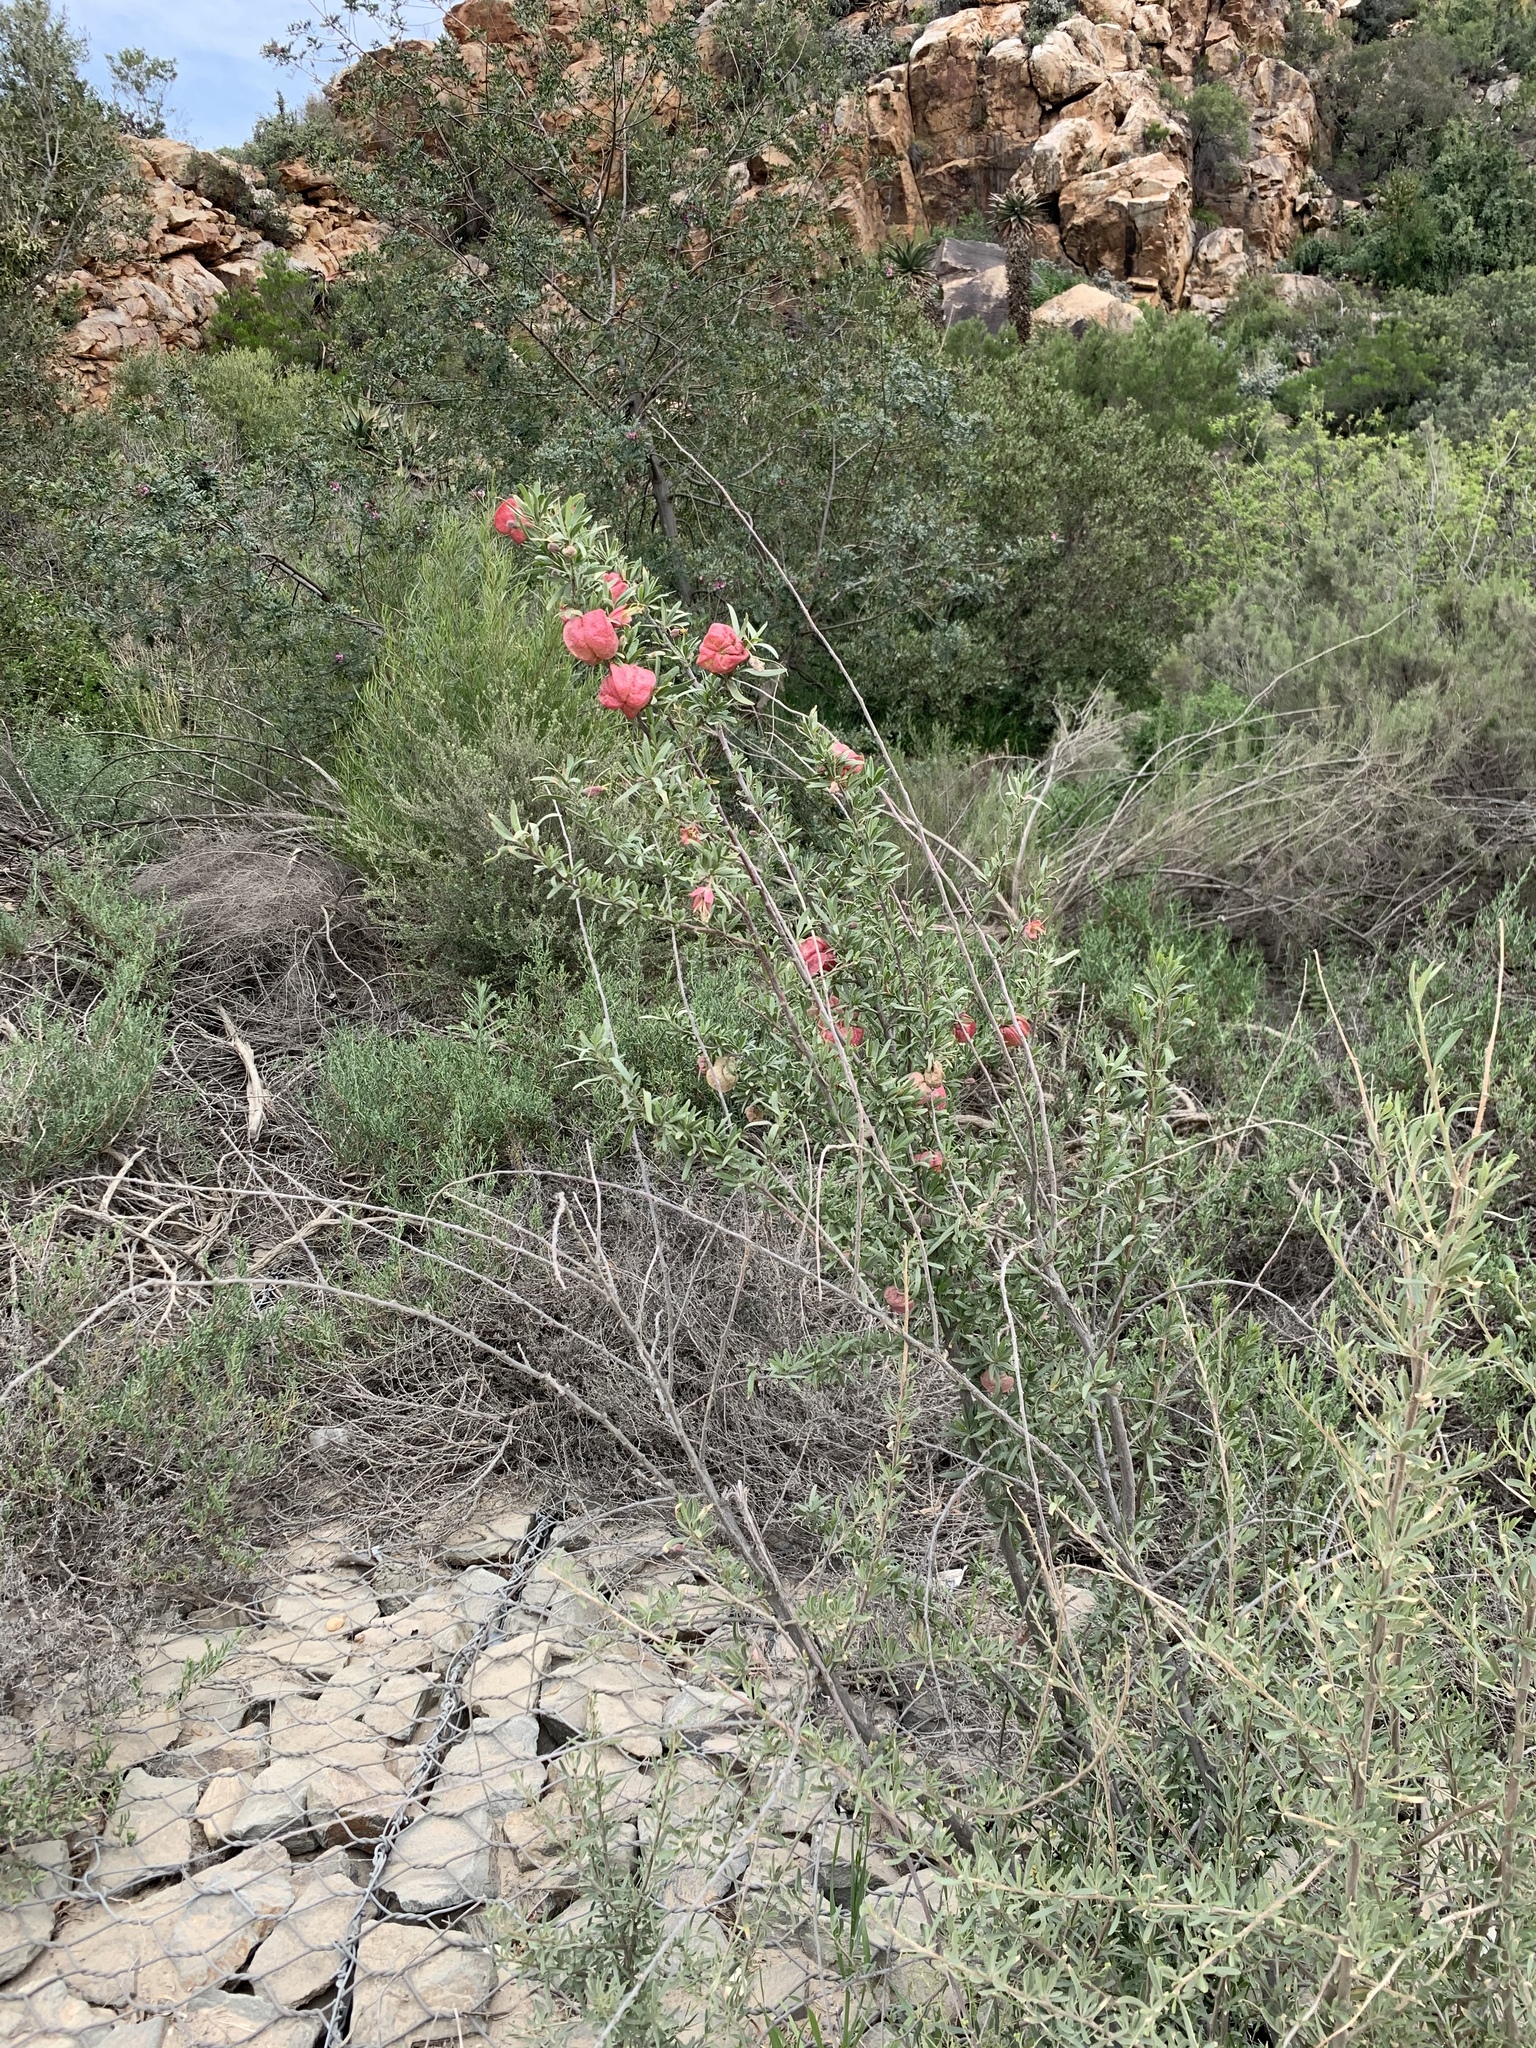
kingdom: Plantae
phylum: Tracheophyta
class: Magnoliopsida
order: Sapindales
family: Meliaceae
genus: Nymania
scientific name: Nymania capensis
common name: Chinese lantern tree
